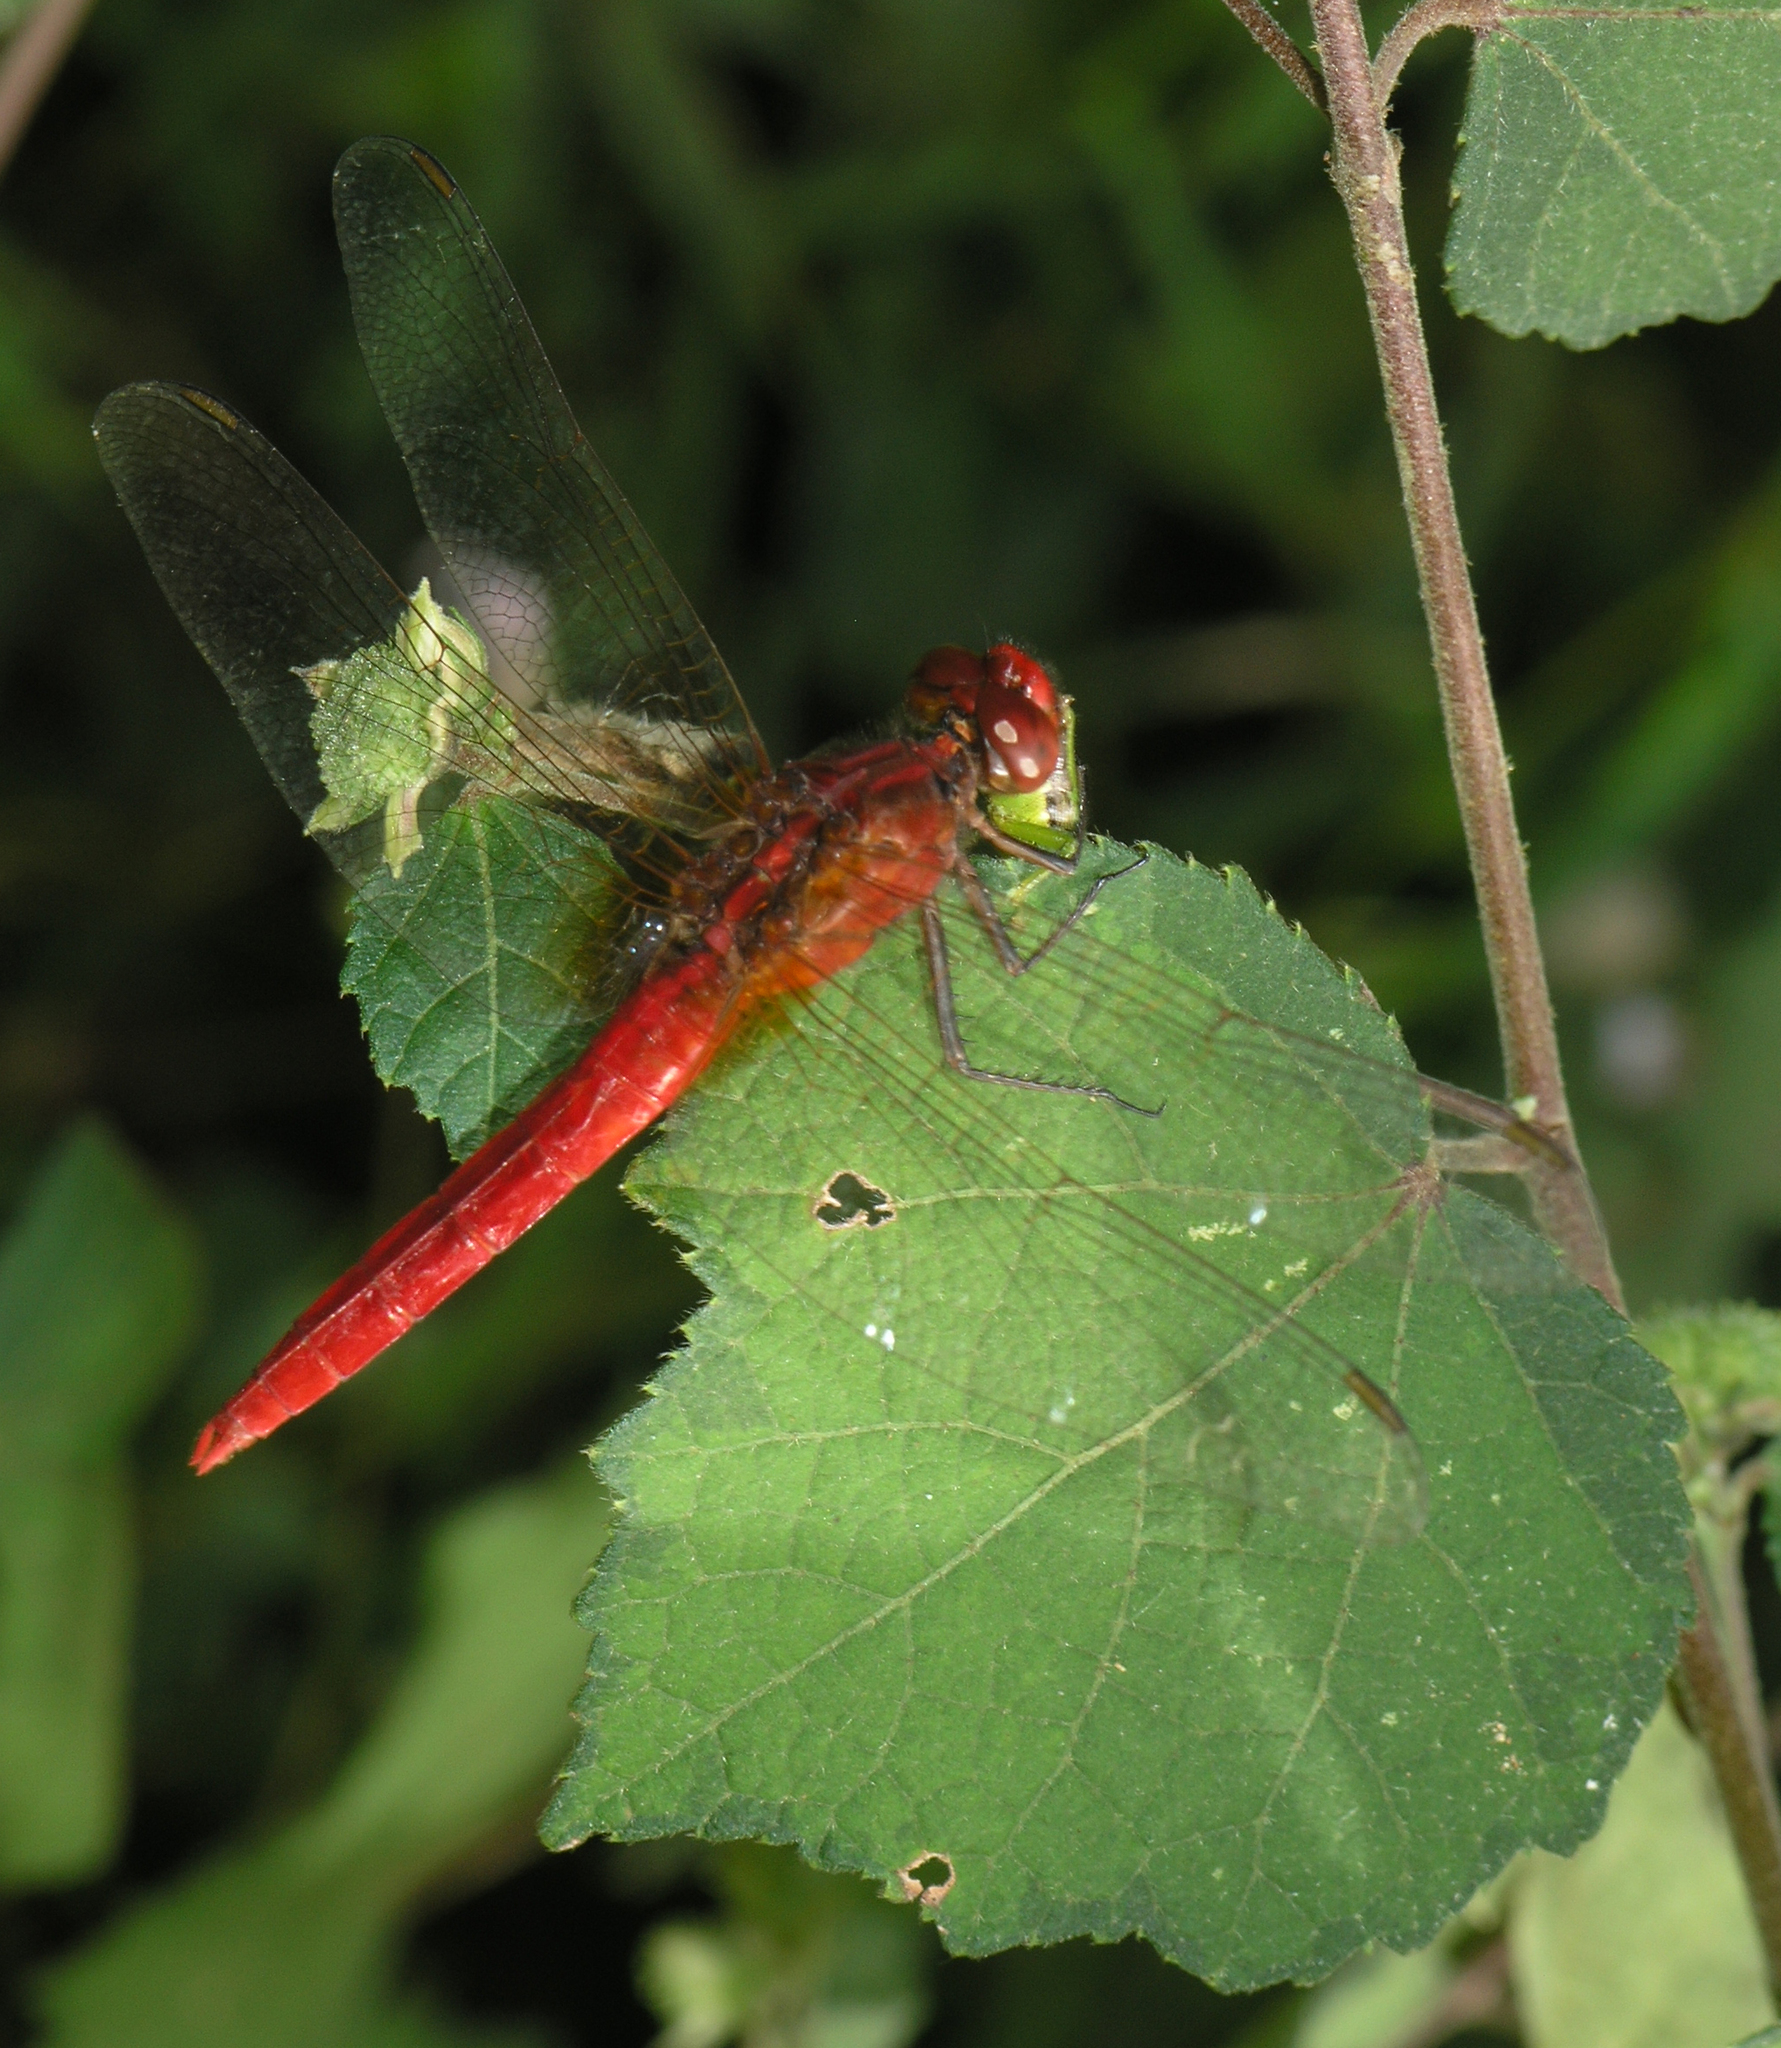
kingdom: Animalia
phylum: Arthropoda
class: Insecta
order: Odonata
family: Libellulidae
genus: Rhodothemis
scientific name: Rhodothemis rufa
